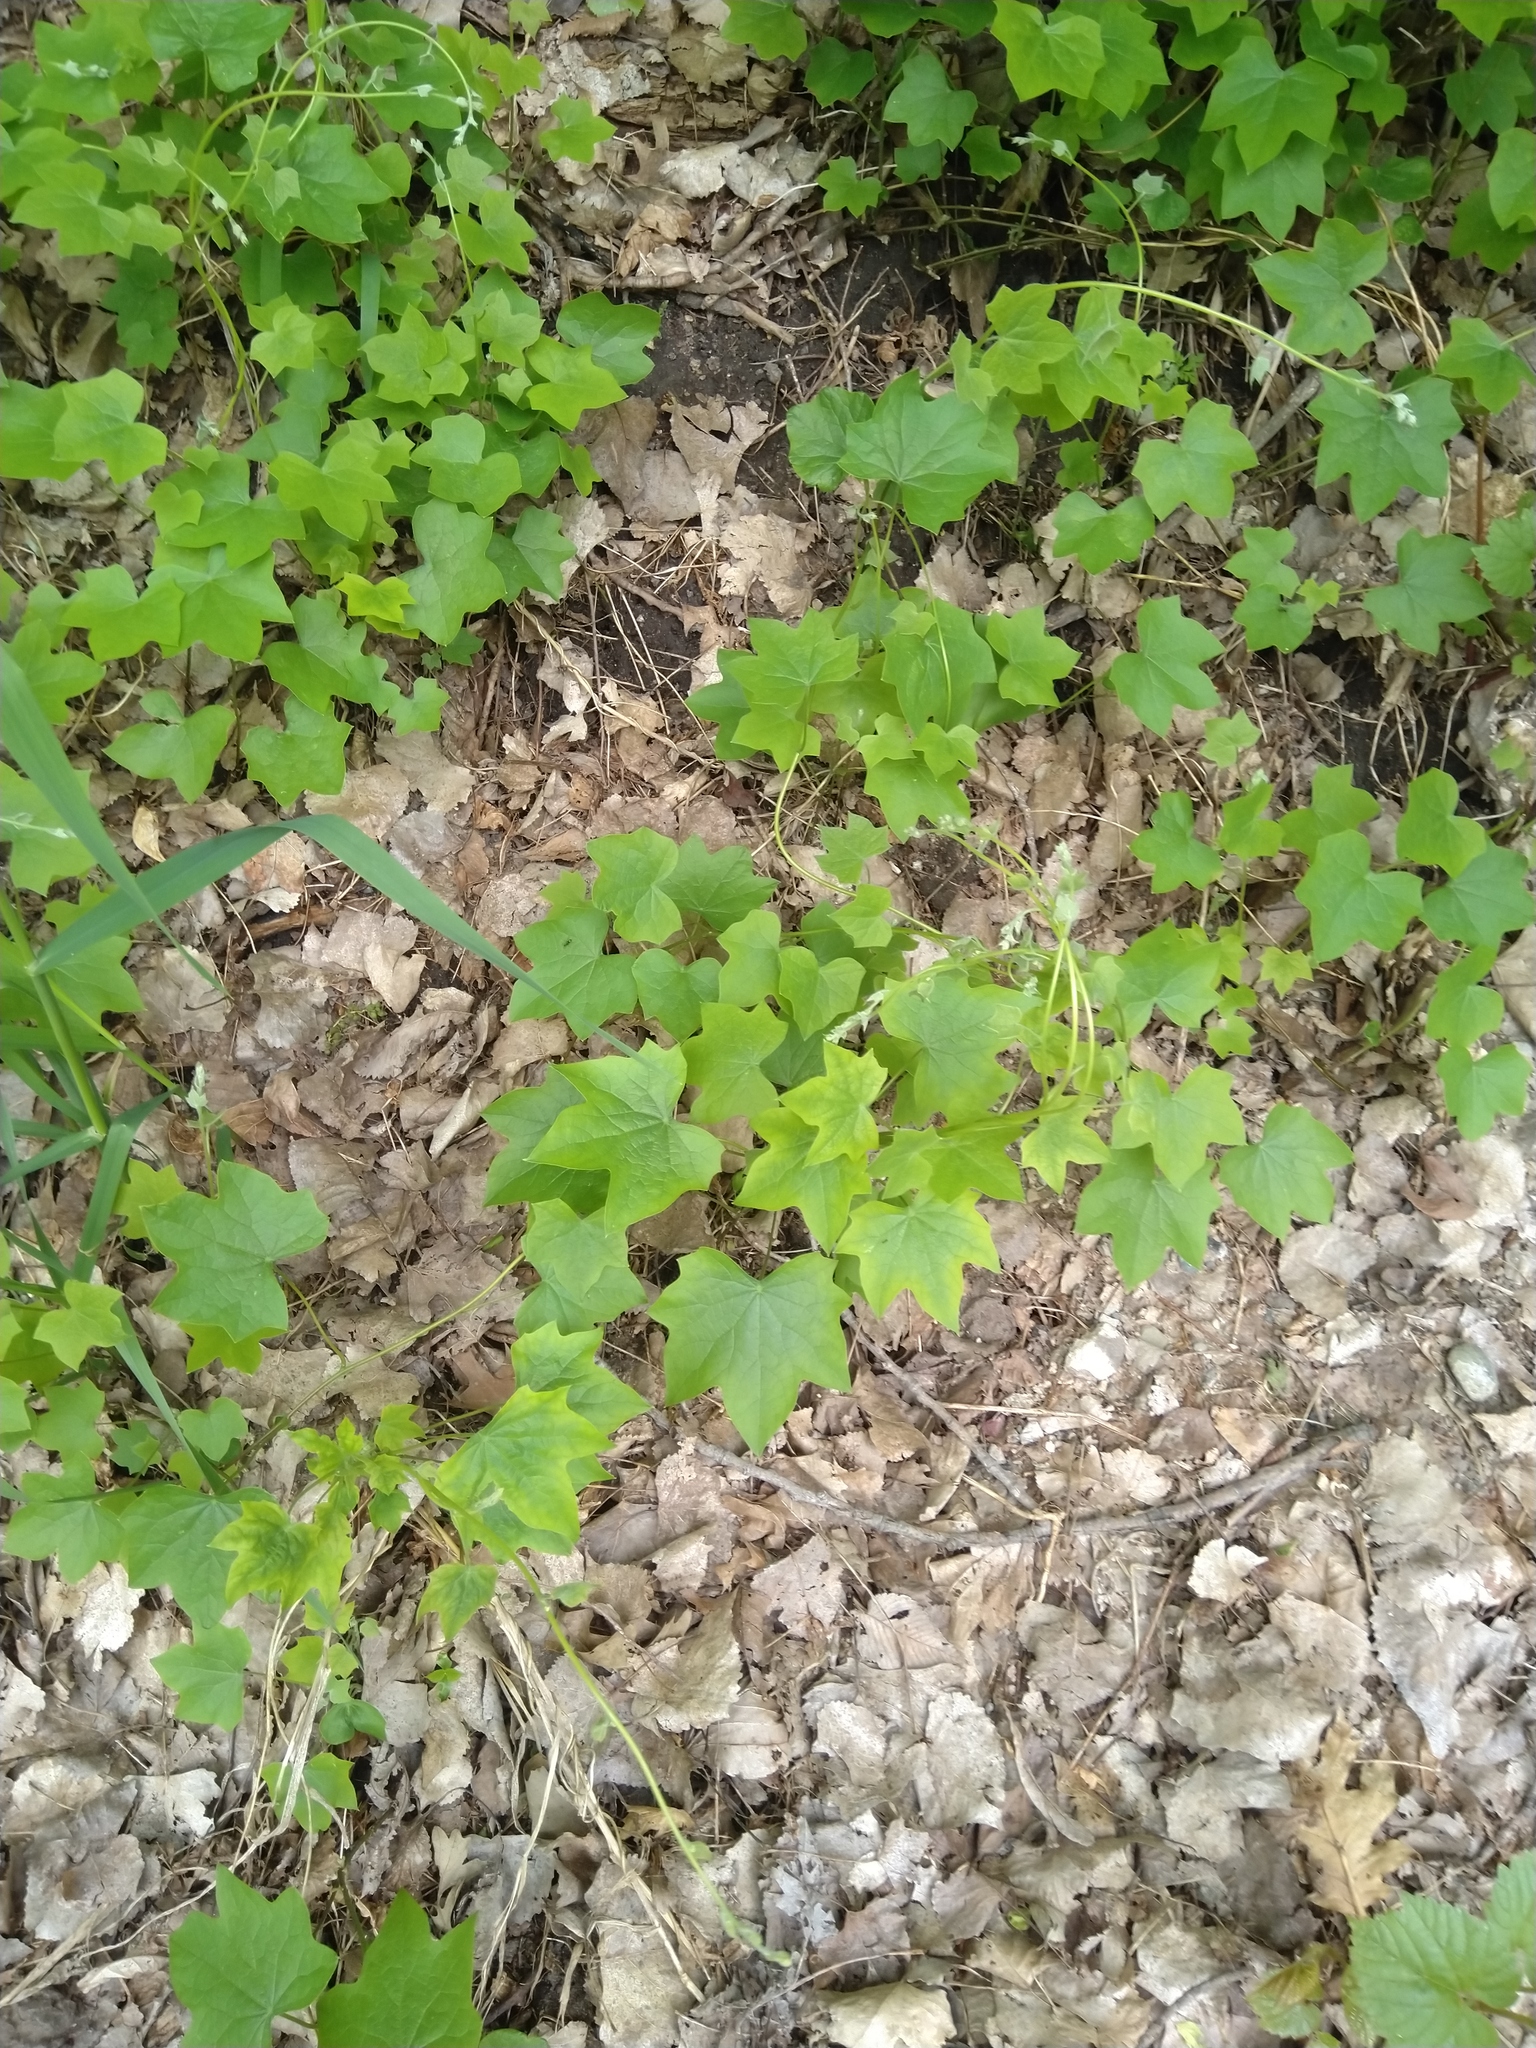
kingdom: Plantae
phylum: Tracheophyta
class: Magnoliopsida
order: Ranunculales
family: Menispermaceae
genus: Menispermum
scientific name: Menispermum canadense
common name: Moonseed
